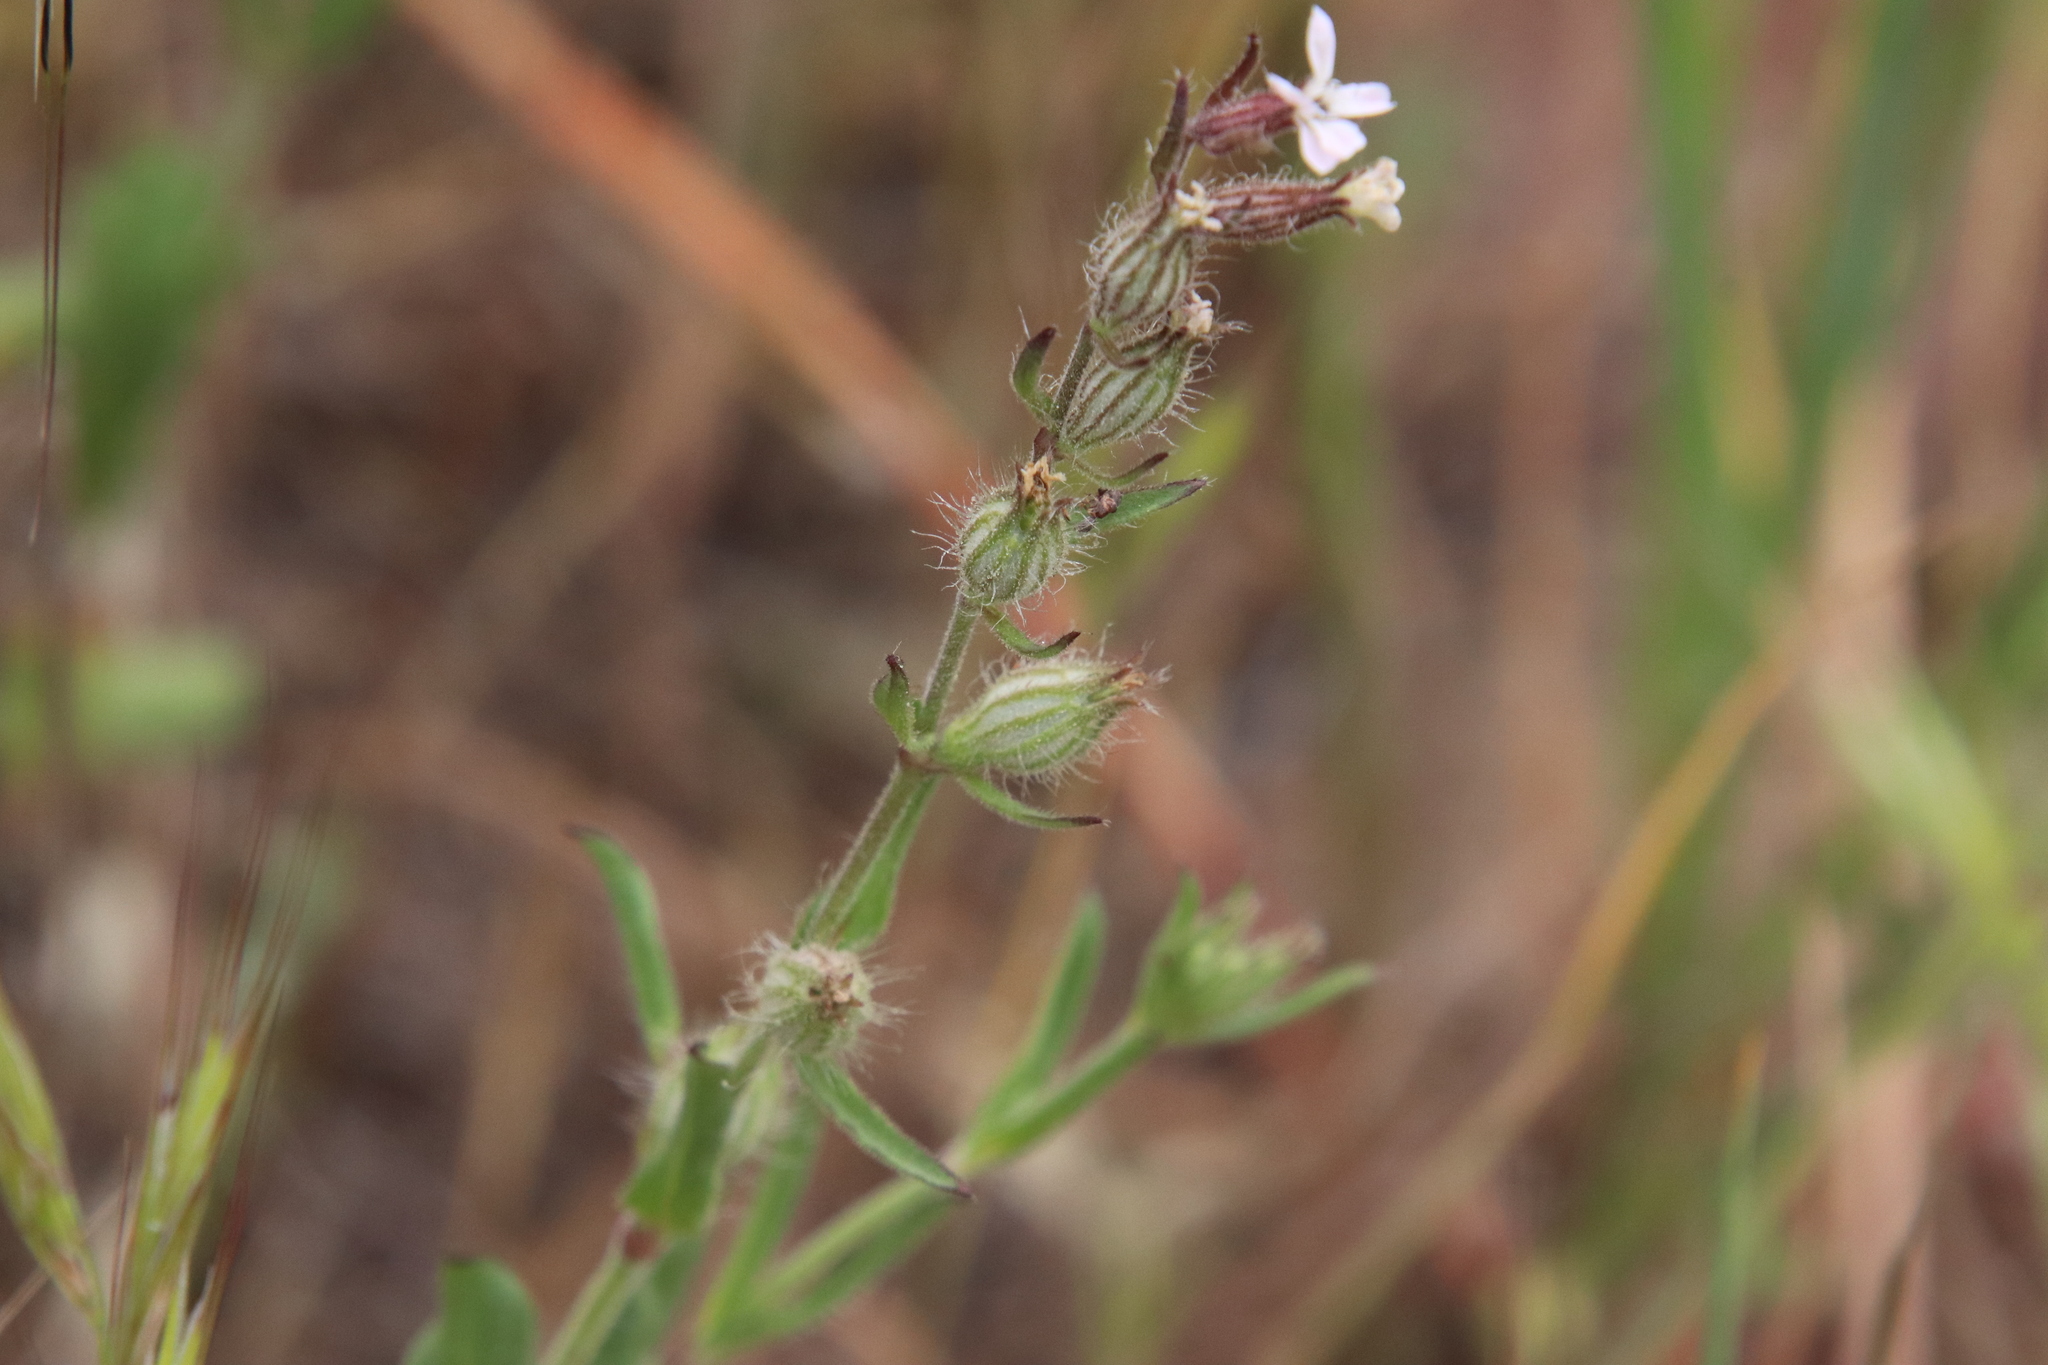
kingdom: Plantae
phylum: Tracheophyta
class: Magnoliopsida
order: Caryophyllales
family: Caryophyllaceae
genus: Silene
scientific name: Silene gallica
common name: Small-flowered catchfly
